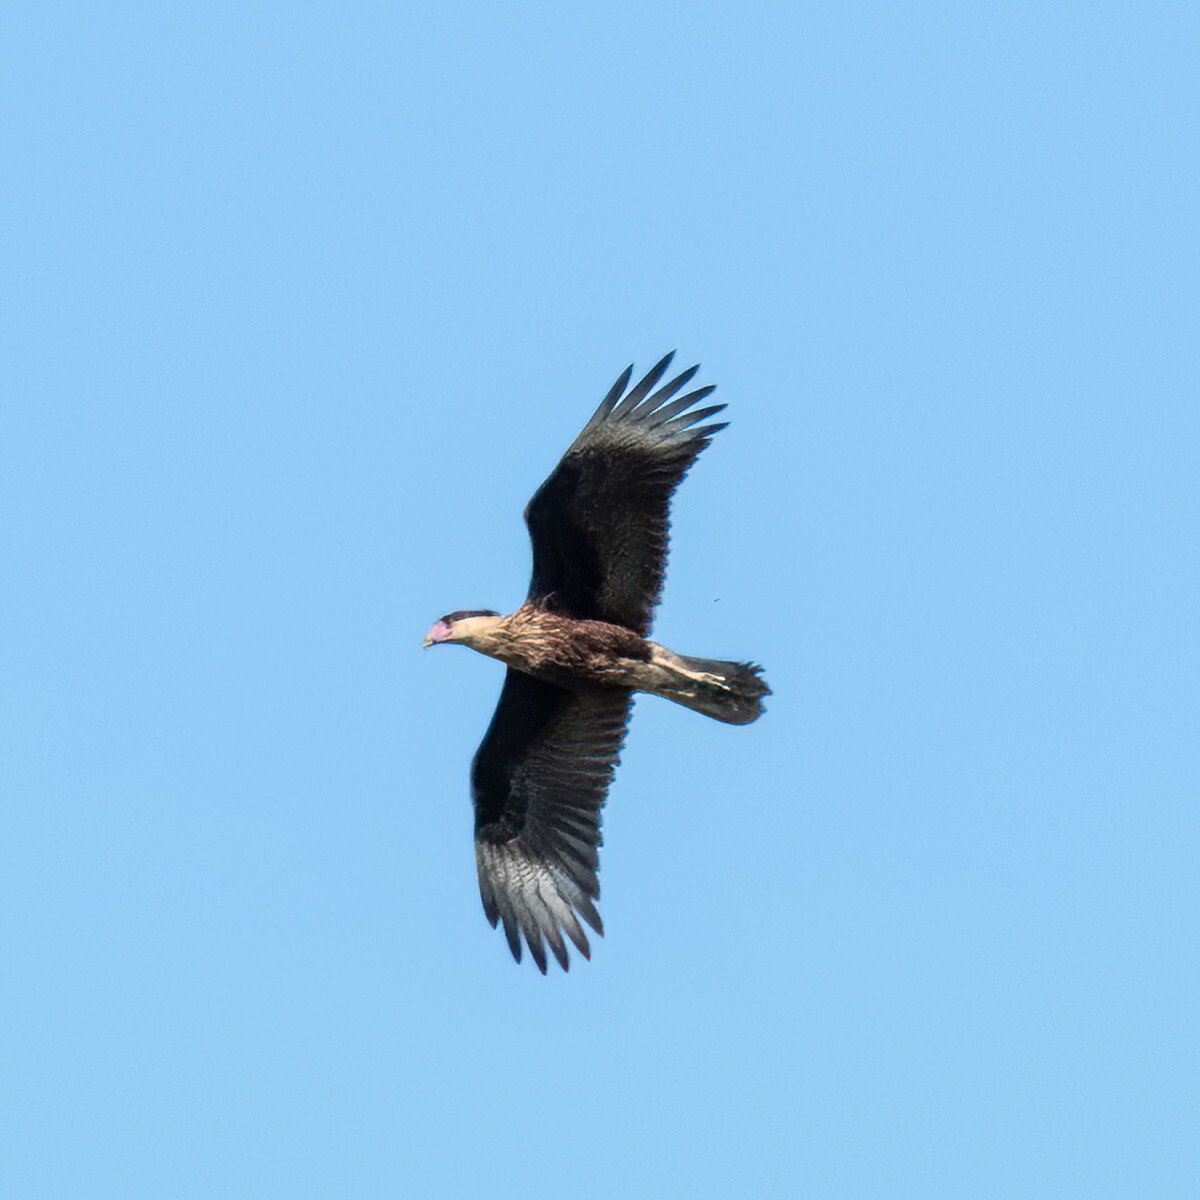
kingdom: Animalia
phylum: Chordata
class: Aves
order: Falconiformes
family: Falconidae
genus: Caracara
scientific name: Caracara plancus
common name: Southern caracara
